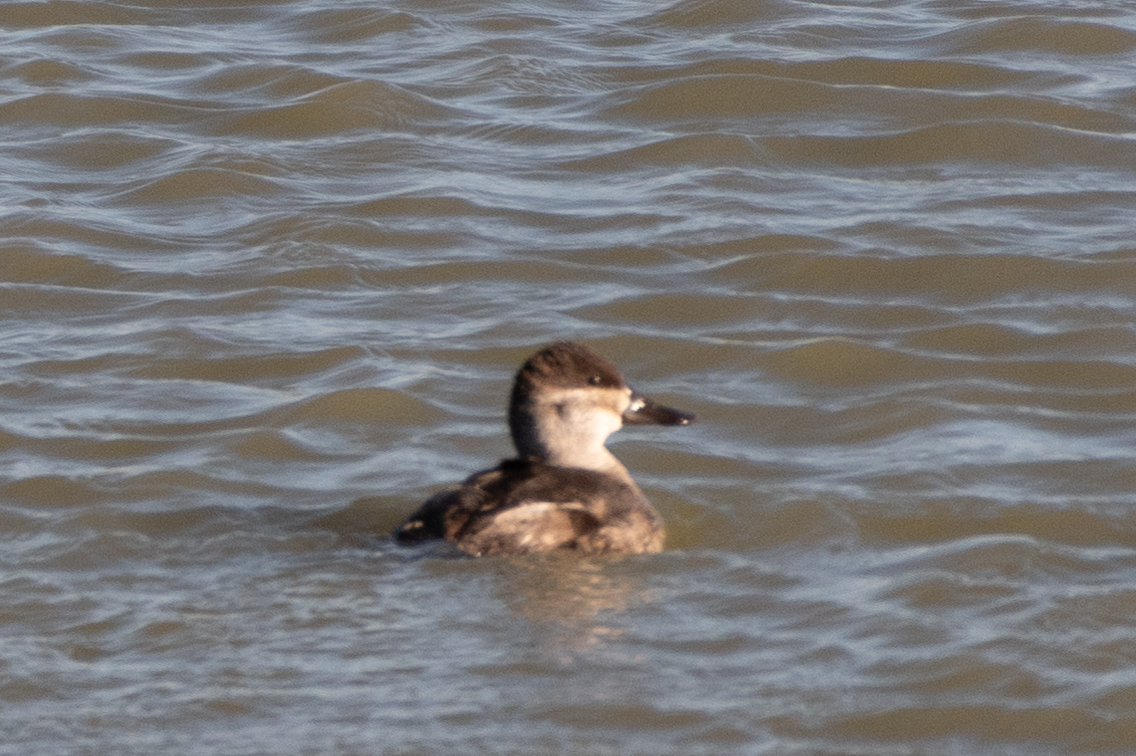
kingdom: Animalia
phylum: Chordata
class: Aves
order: Anseriformes
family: Anatidae
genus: Oxyura
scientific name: Oxyura jamaicensis
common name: Ruddy duck
